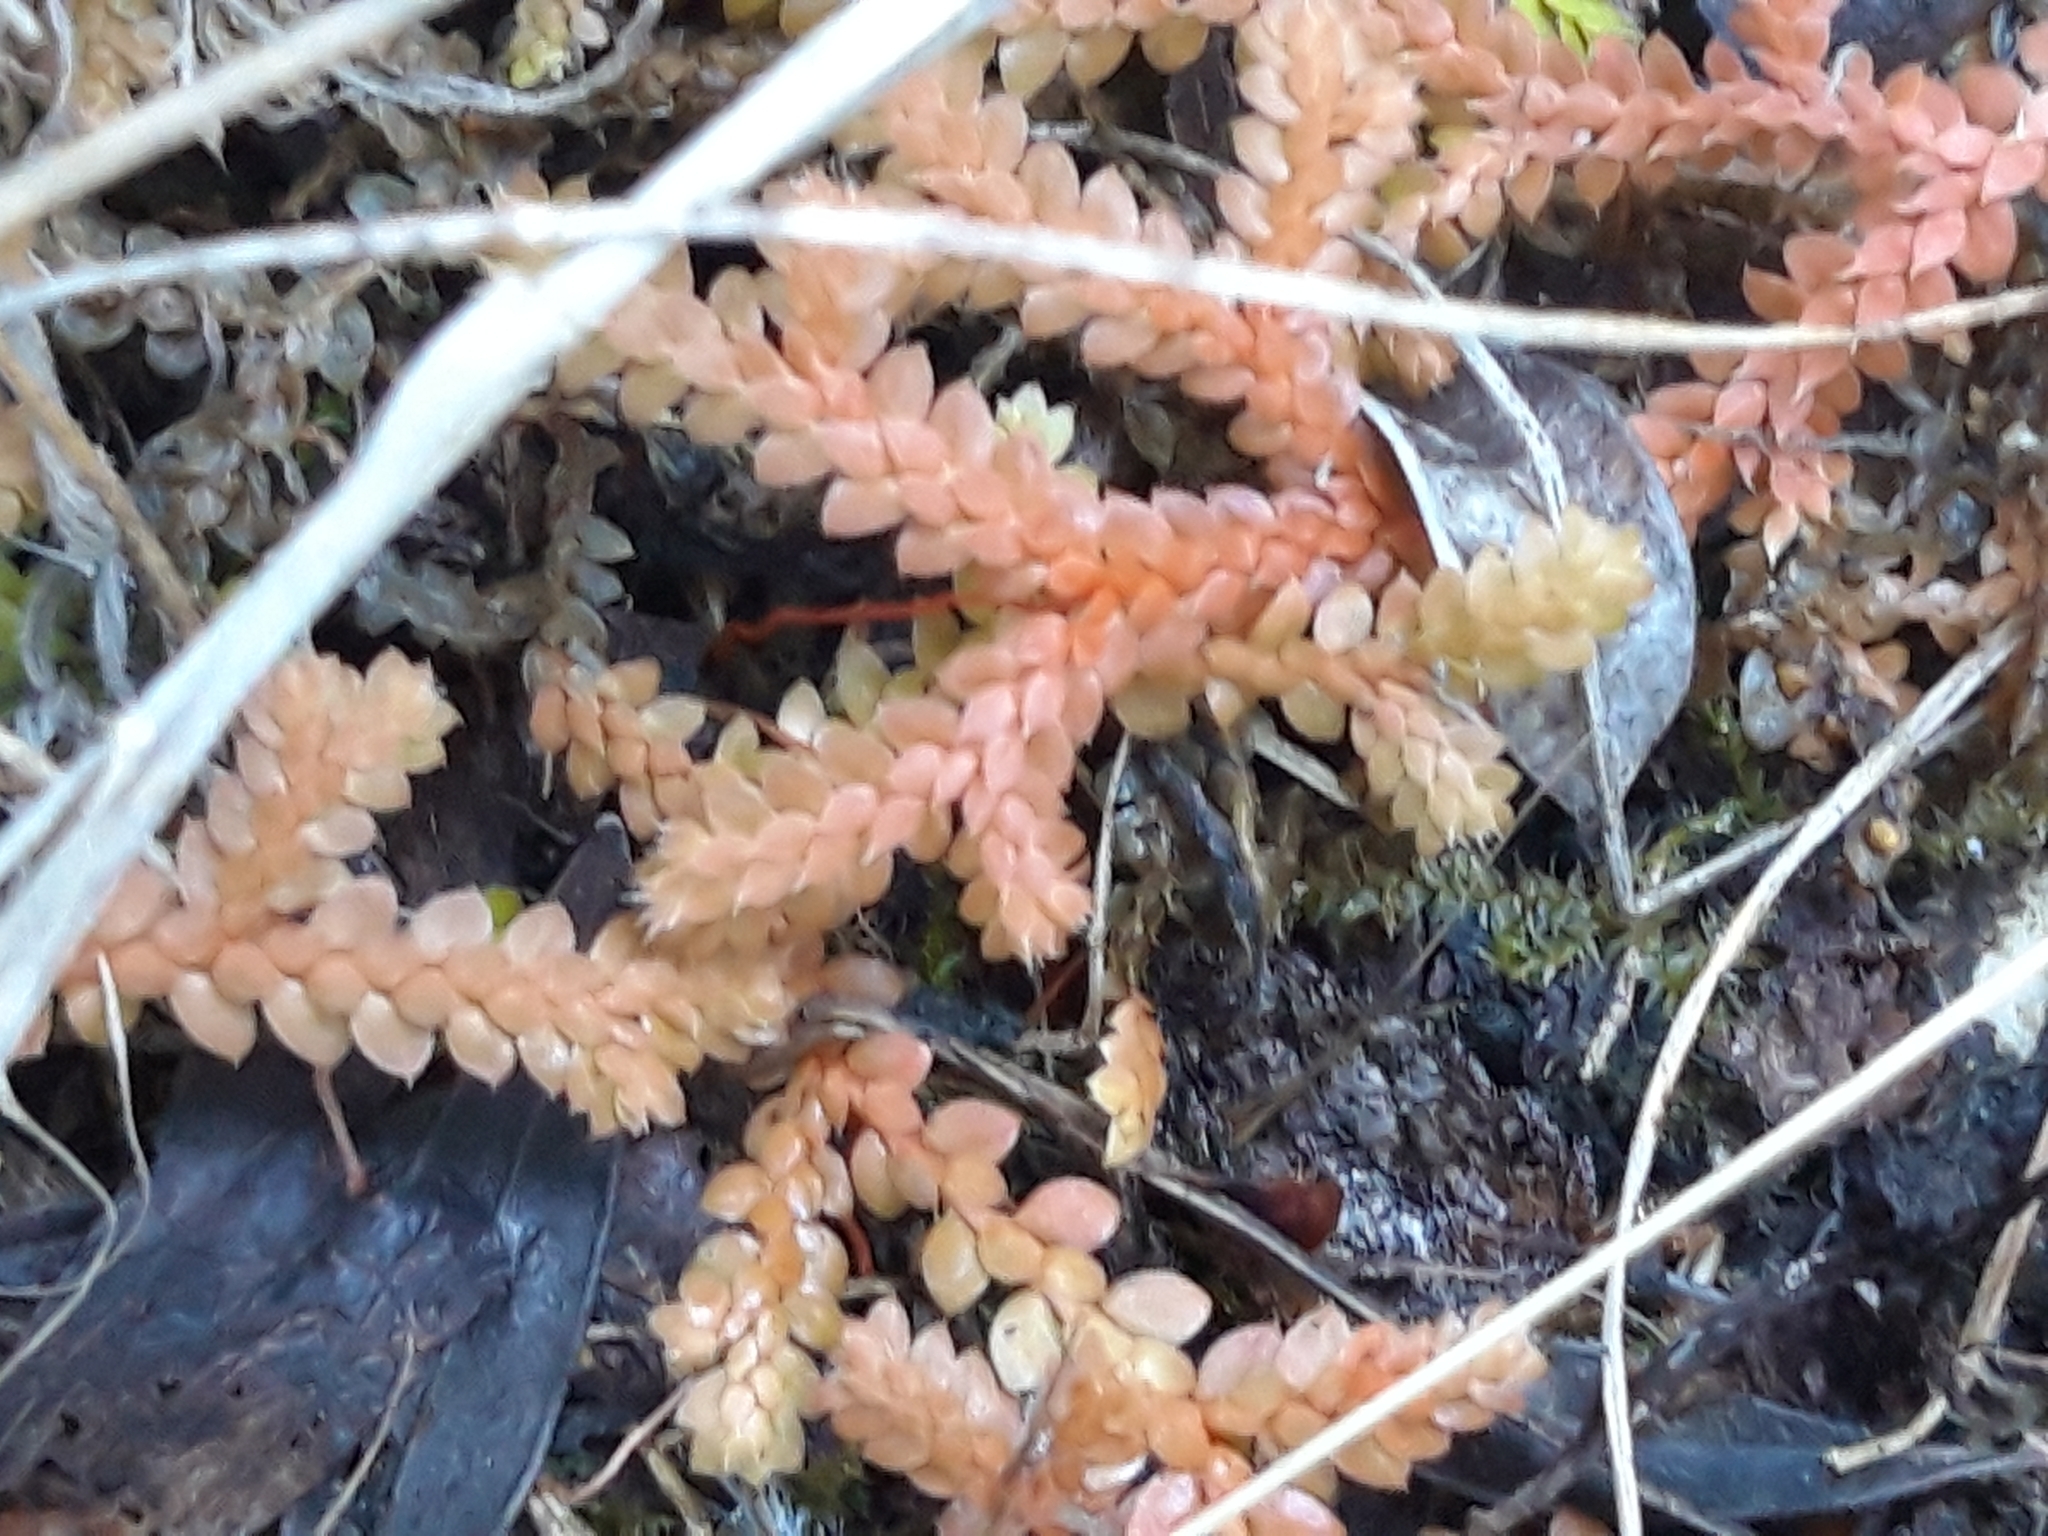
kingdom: Plantae
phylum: Tracheophyta
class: Lycopodiopsida
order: Selaginellales
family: Selaginellaceae
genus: Selaginella
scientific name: Selaginella denticulata
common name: Toothed-leaved clubmoss
